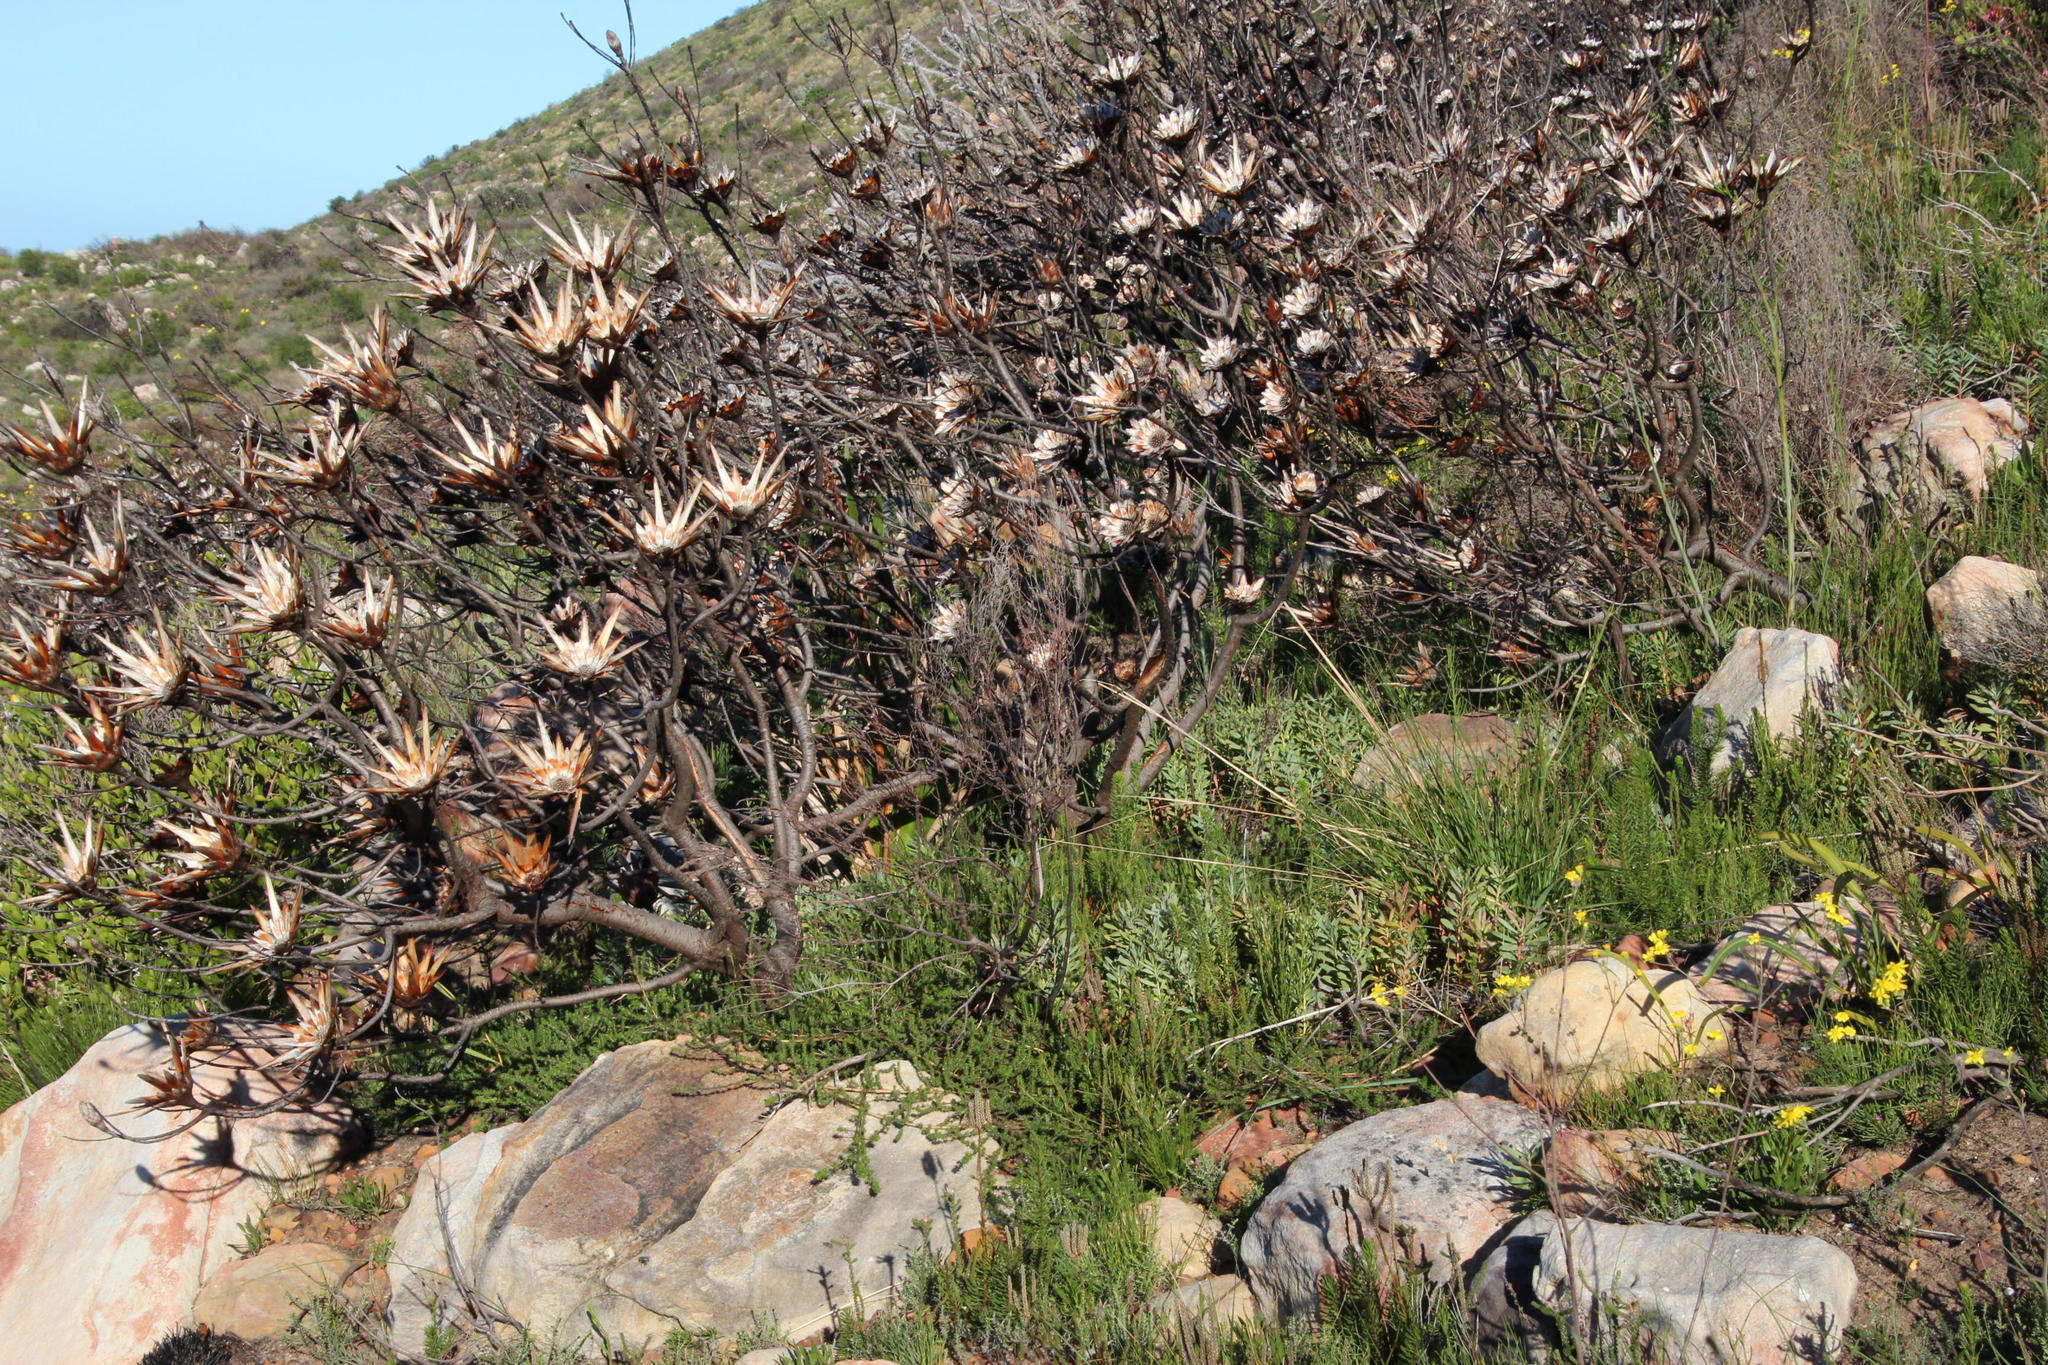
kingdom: Plantae
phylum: Tracheophyta
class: Magnoliopsida
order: Asterales
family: Asteraceae
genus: Othonna
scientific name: Othonna quinquedentata
